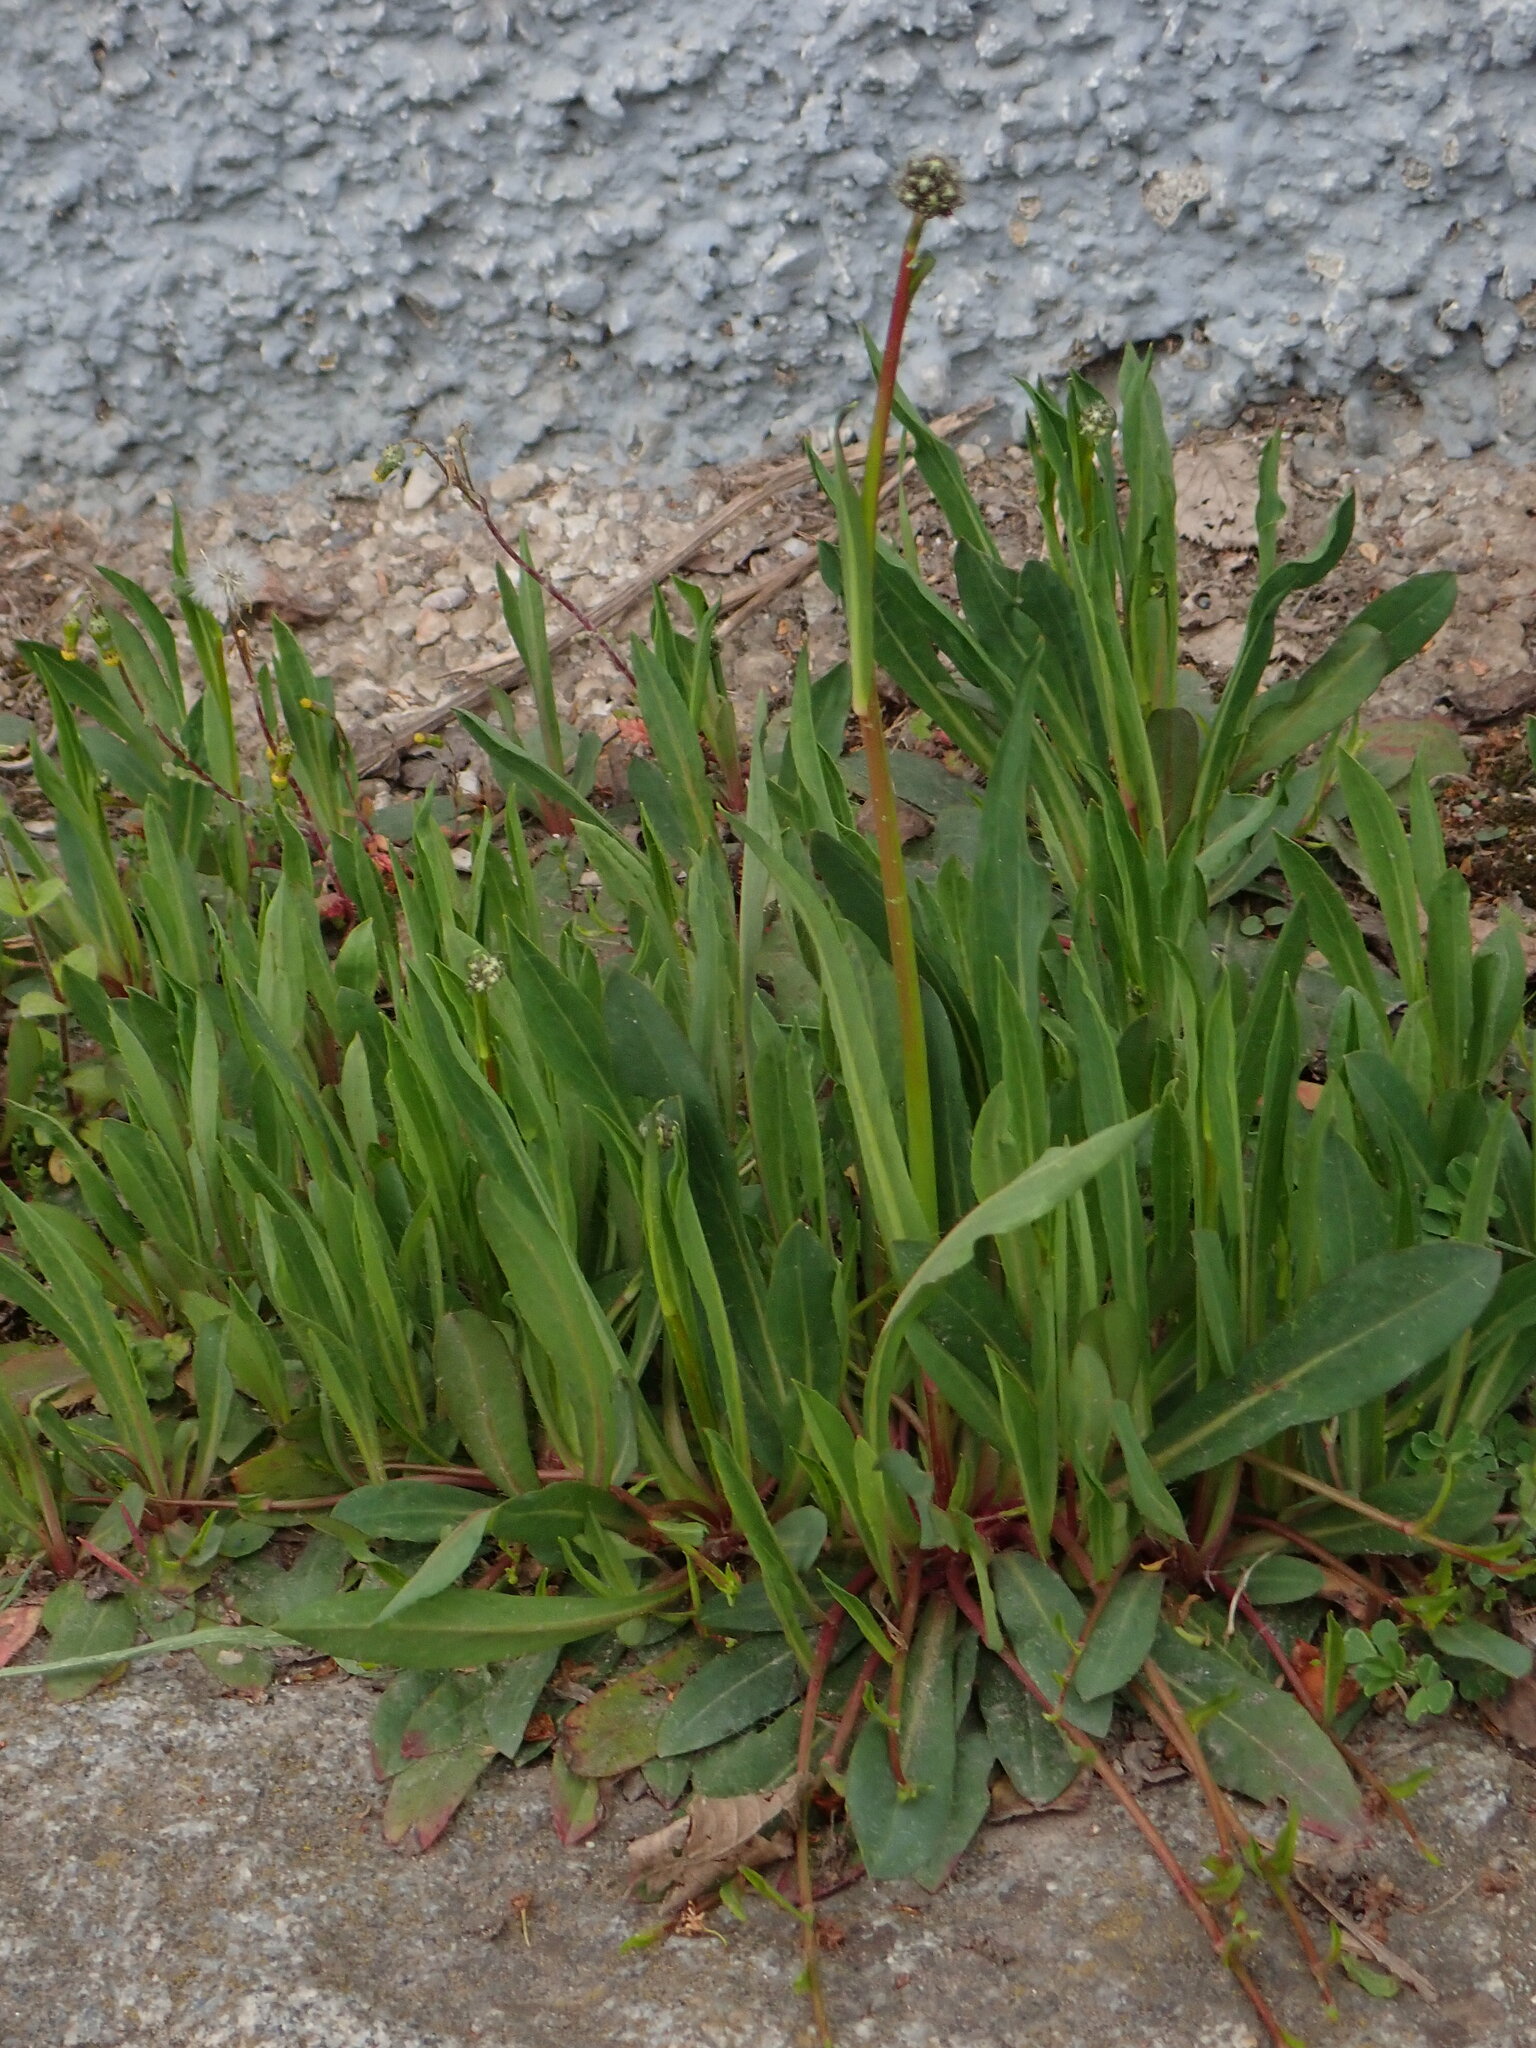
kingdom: Plantae
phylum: Tracheophyta
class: Magnoliopsida
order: Asterales
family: Asteraceae
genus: Pilosella
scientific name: Pilosella bauhini
